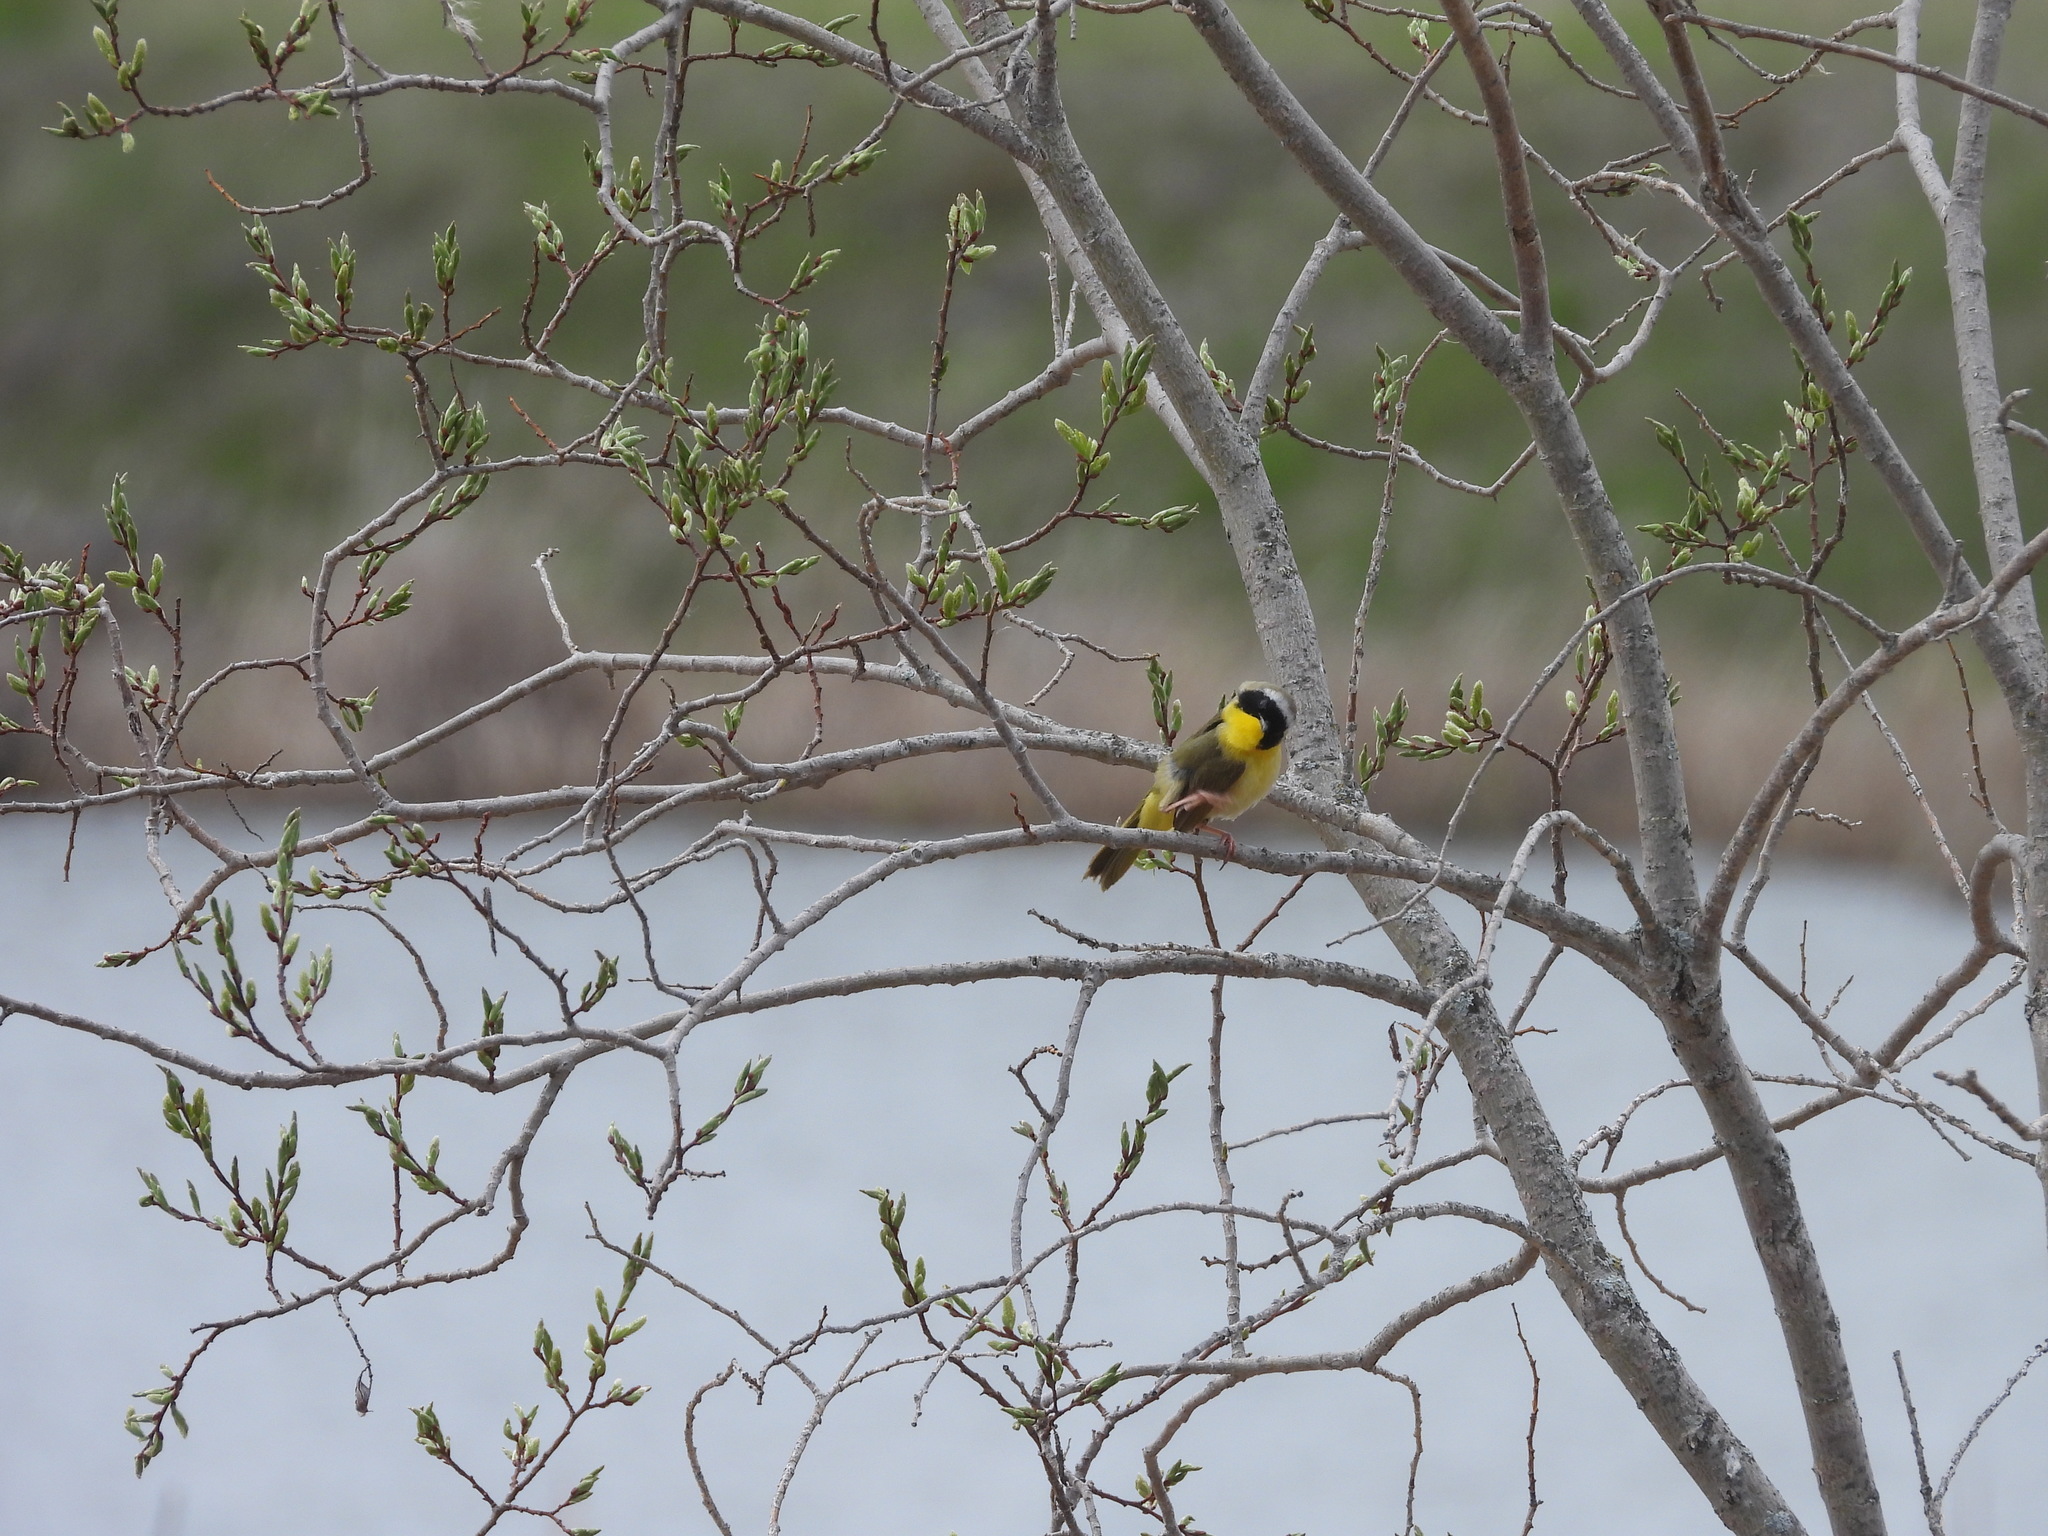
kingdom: Animalia
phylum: Chordata
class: Aves
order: Passeriformes
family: Parulidae
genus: Geothlypis
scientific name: Geothlypis trichas
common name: Common yellowthroat
